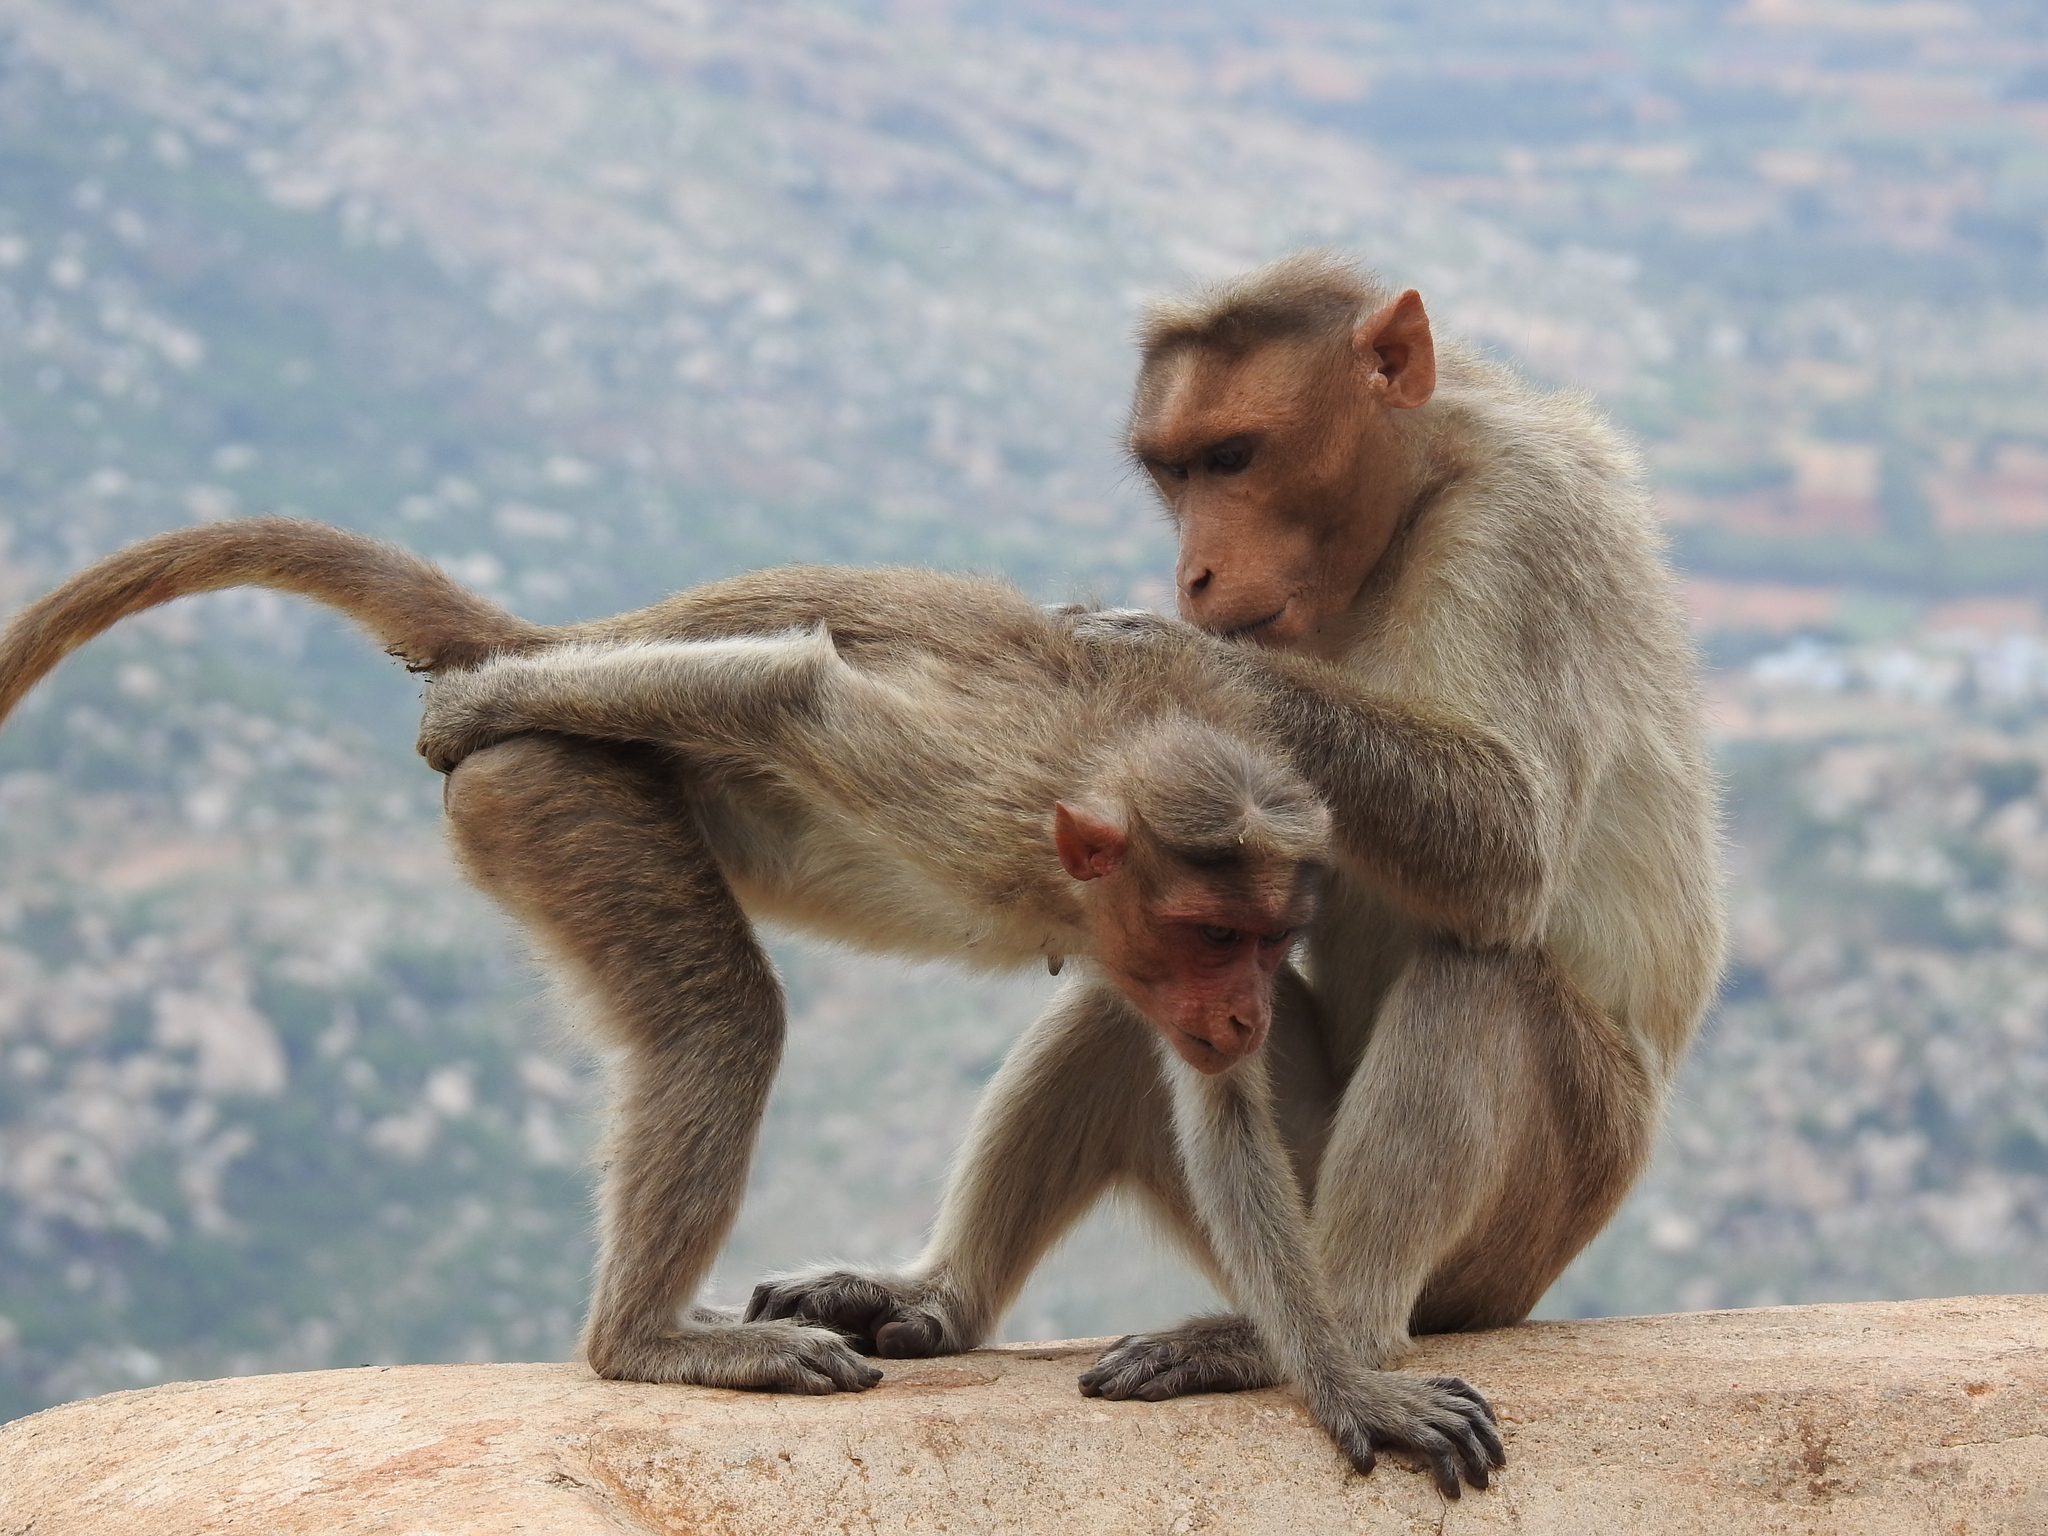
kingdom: Animalia
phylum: Chordata
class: Mammalia
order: Primates
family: Cercopithecidae
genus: Macaca
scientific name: Macaca radiata
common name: Bonnet macaque
